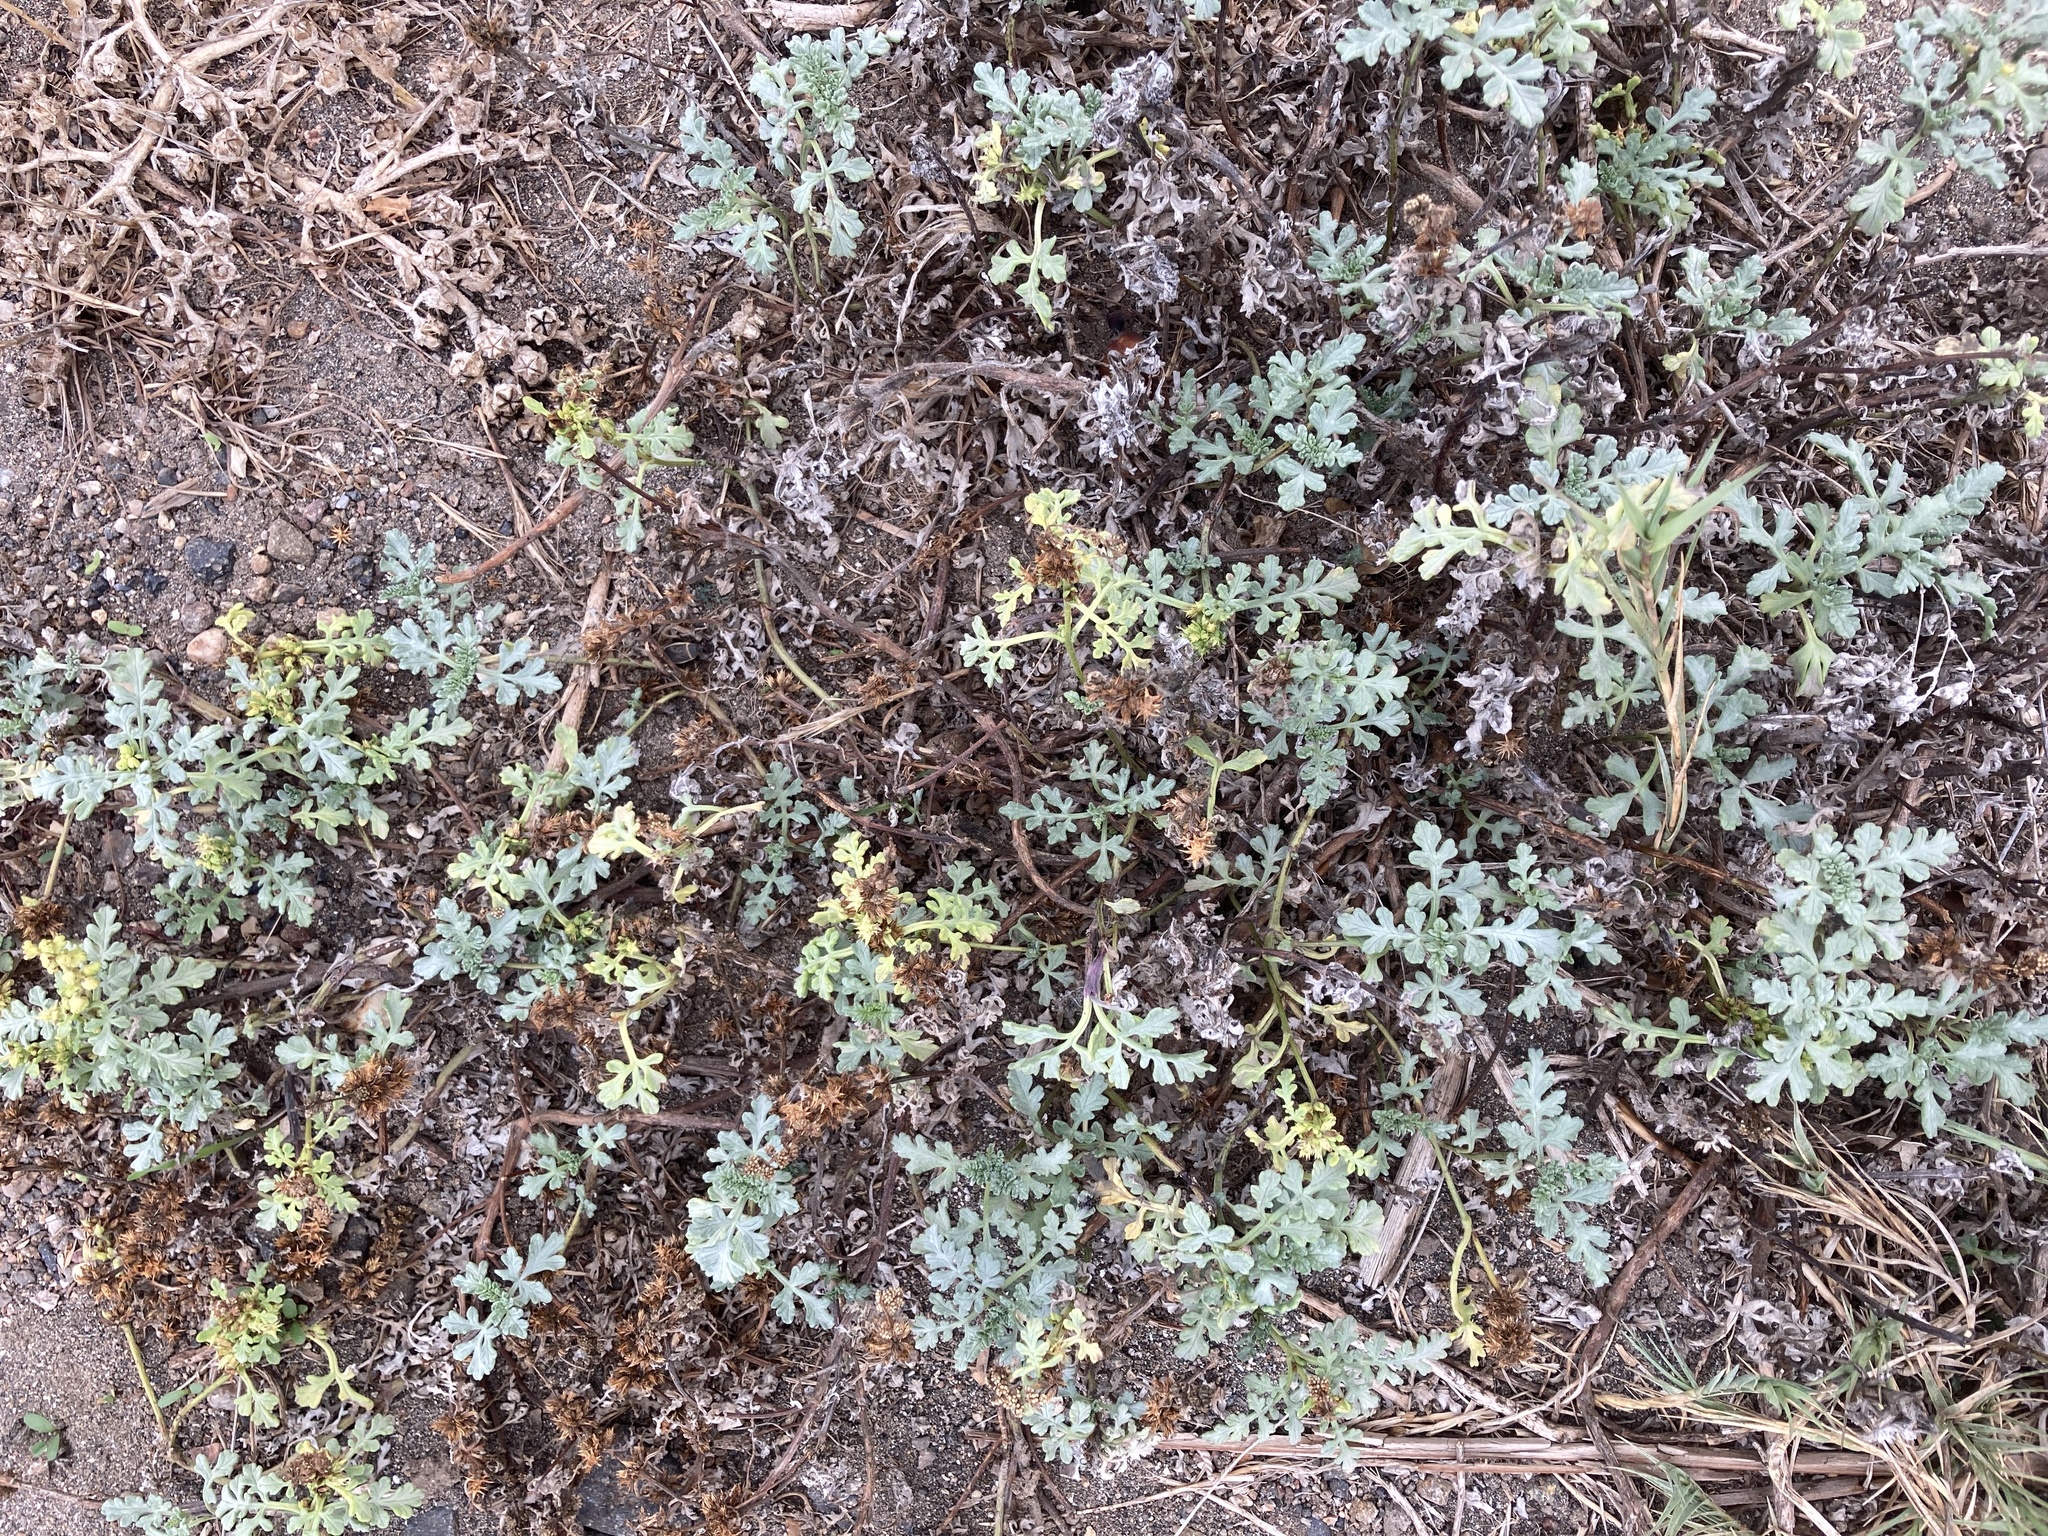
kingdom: Plantae
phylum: Tracheophyta
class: Magnoliopsida
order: Asterales
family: Asteraceae
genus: Ambrosia
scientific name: Ambrosia chamissonis
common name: Beachbur
